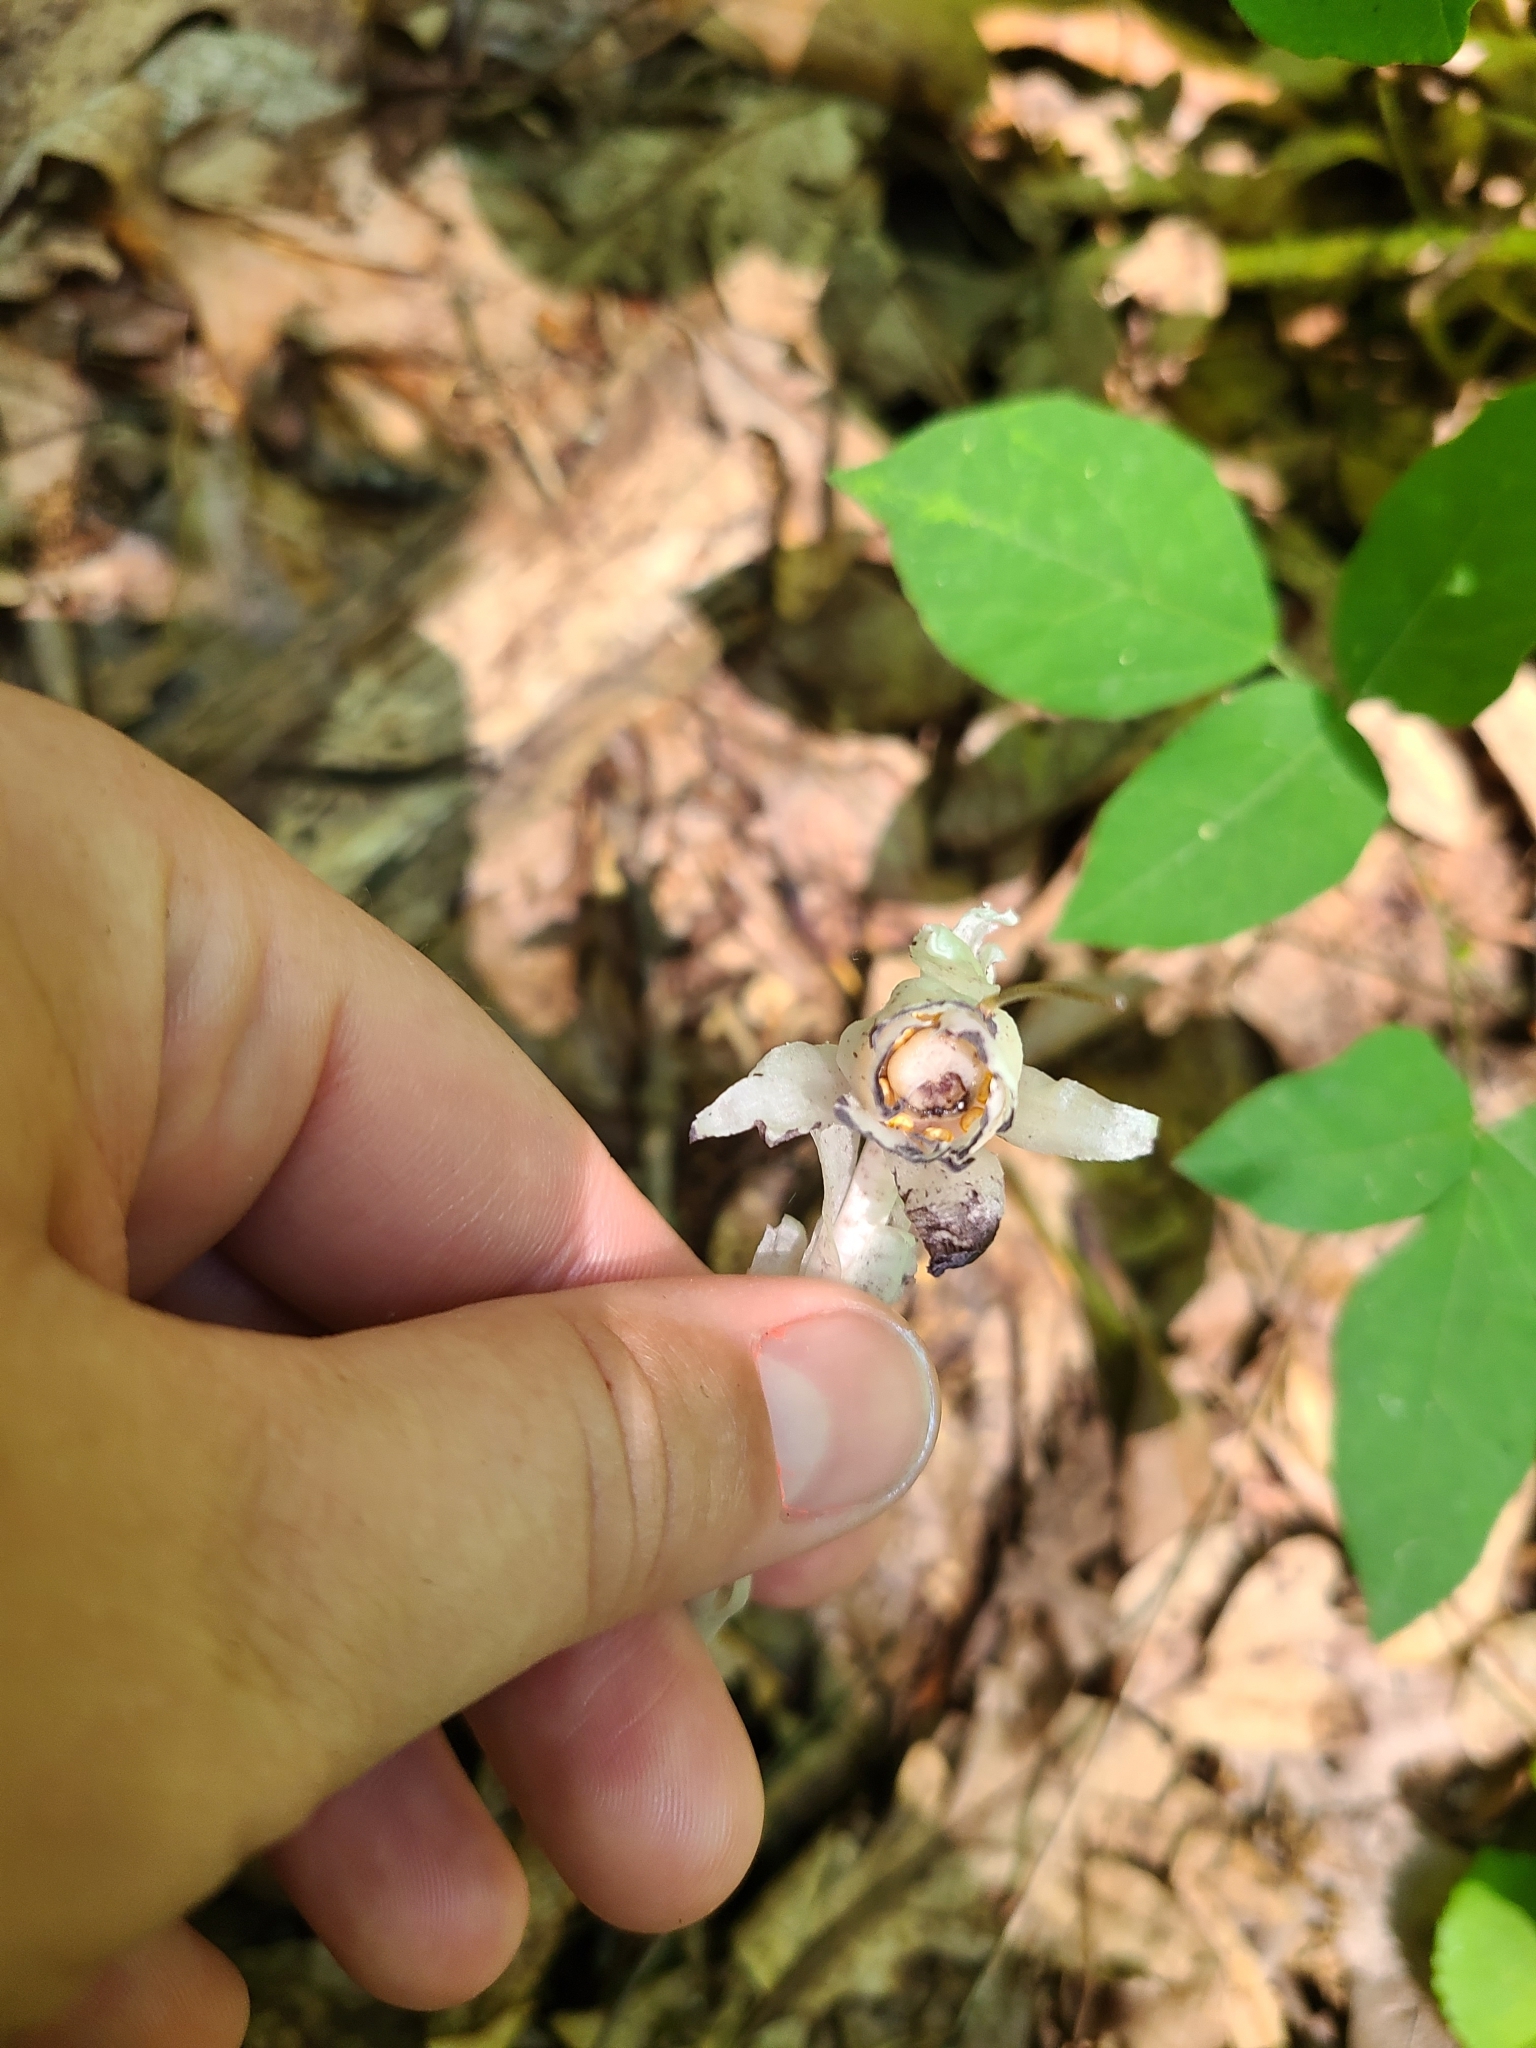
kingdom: Plantae
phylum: Tracheophyta
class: Magnoliopsida
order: Ericales
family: Ericaceae
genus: Monotropa
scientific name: Monotropa uniflora
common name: Convulsion root
